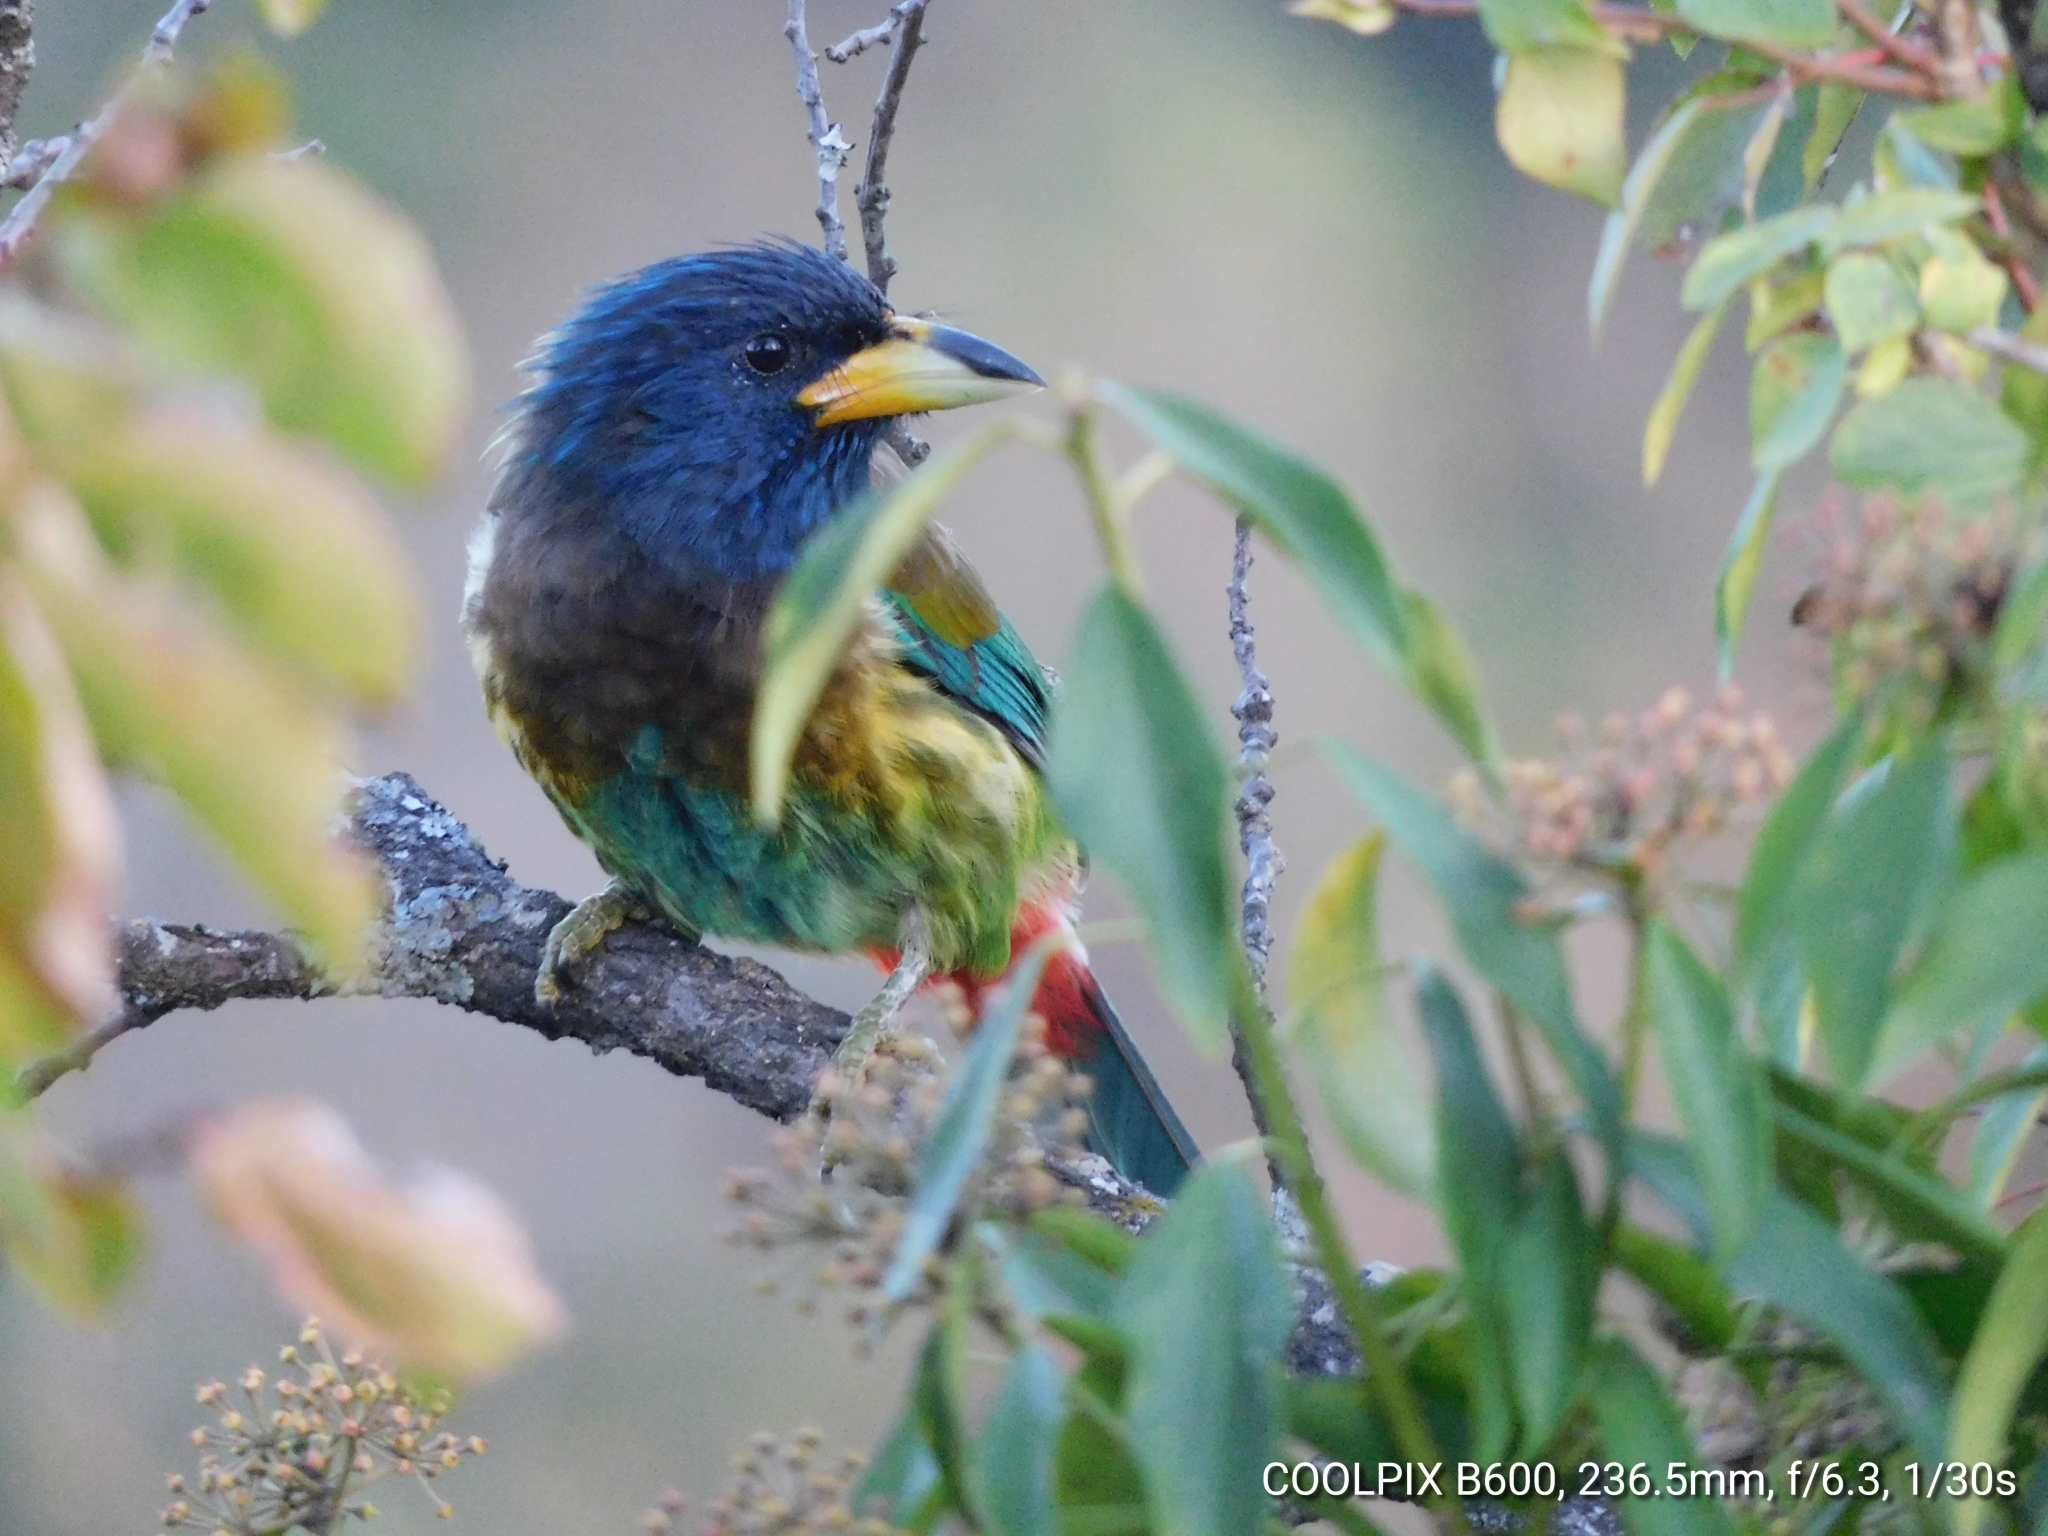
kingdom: Animalia
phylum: Chordata
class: Aves
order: Piciformes
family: Megalaimidae
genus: Psilopogon
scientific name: Psilopogon virens
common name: Great barbet
